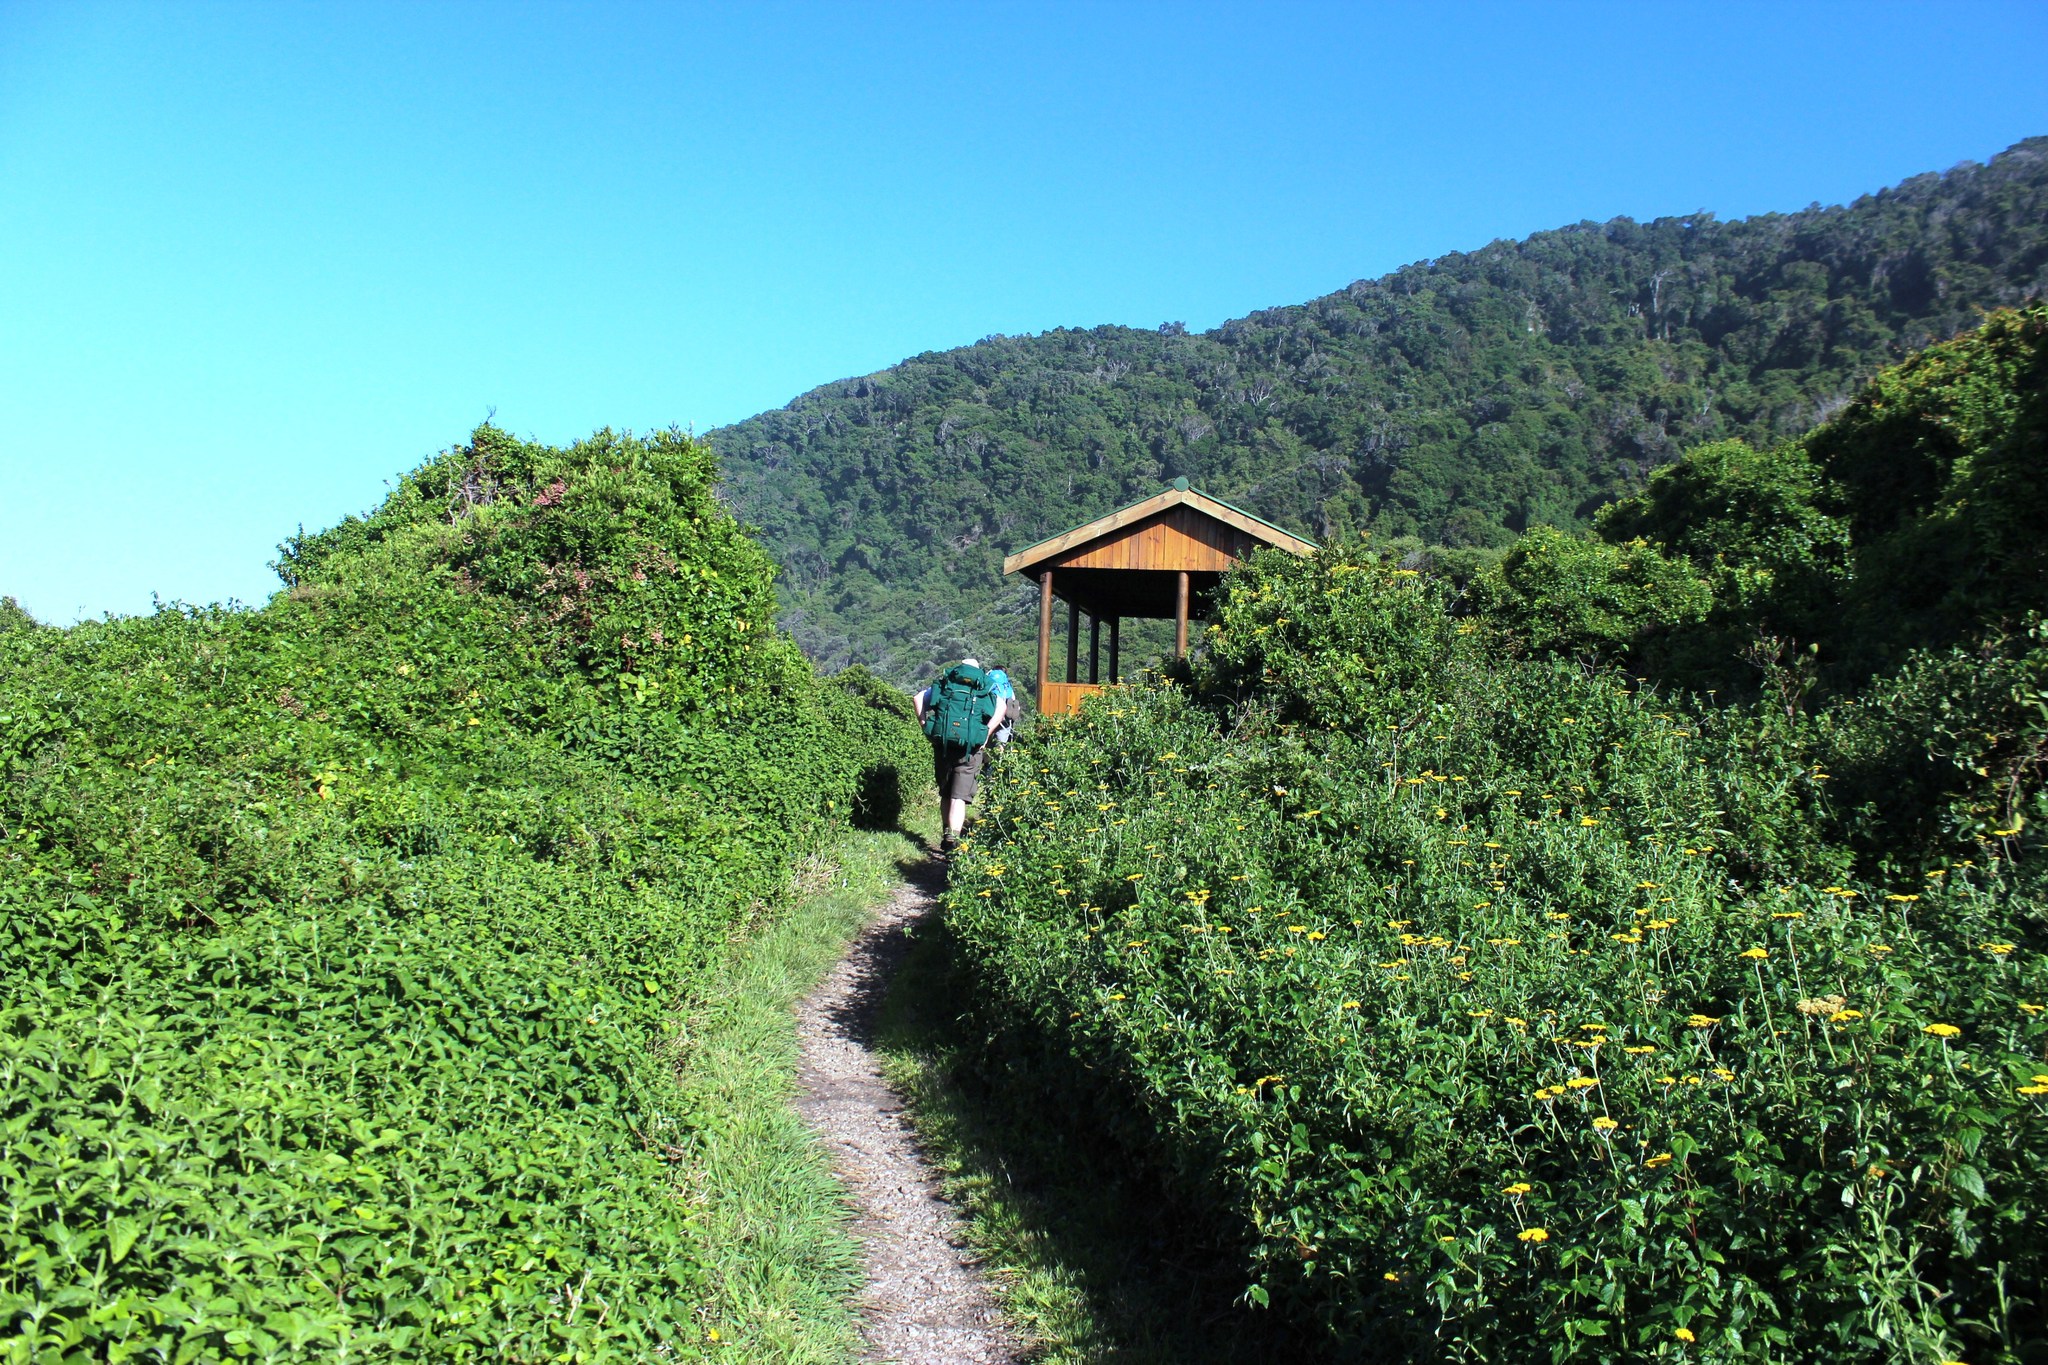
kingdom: Plantae
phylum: Tracheophyta
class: Magnoliopsida
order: Fabales
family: Fabaceae
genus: Psoralea
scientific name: Psoralea sericea
